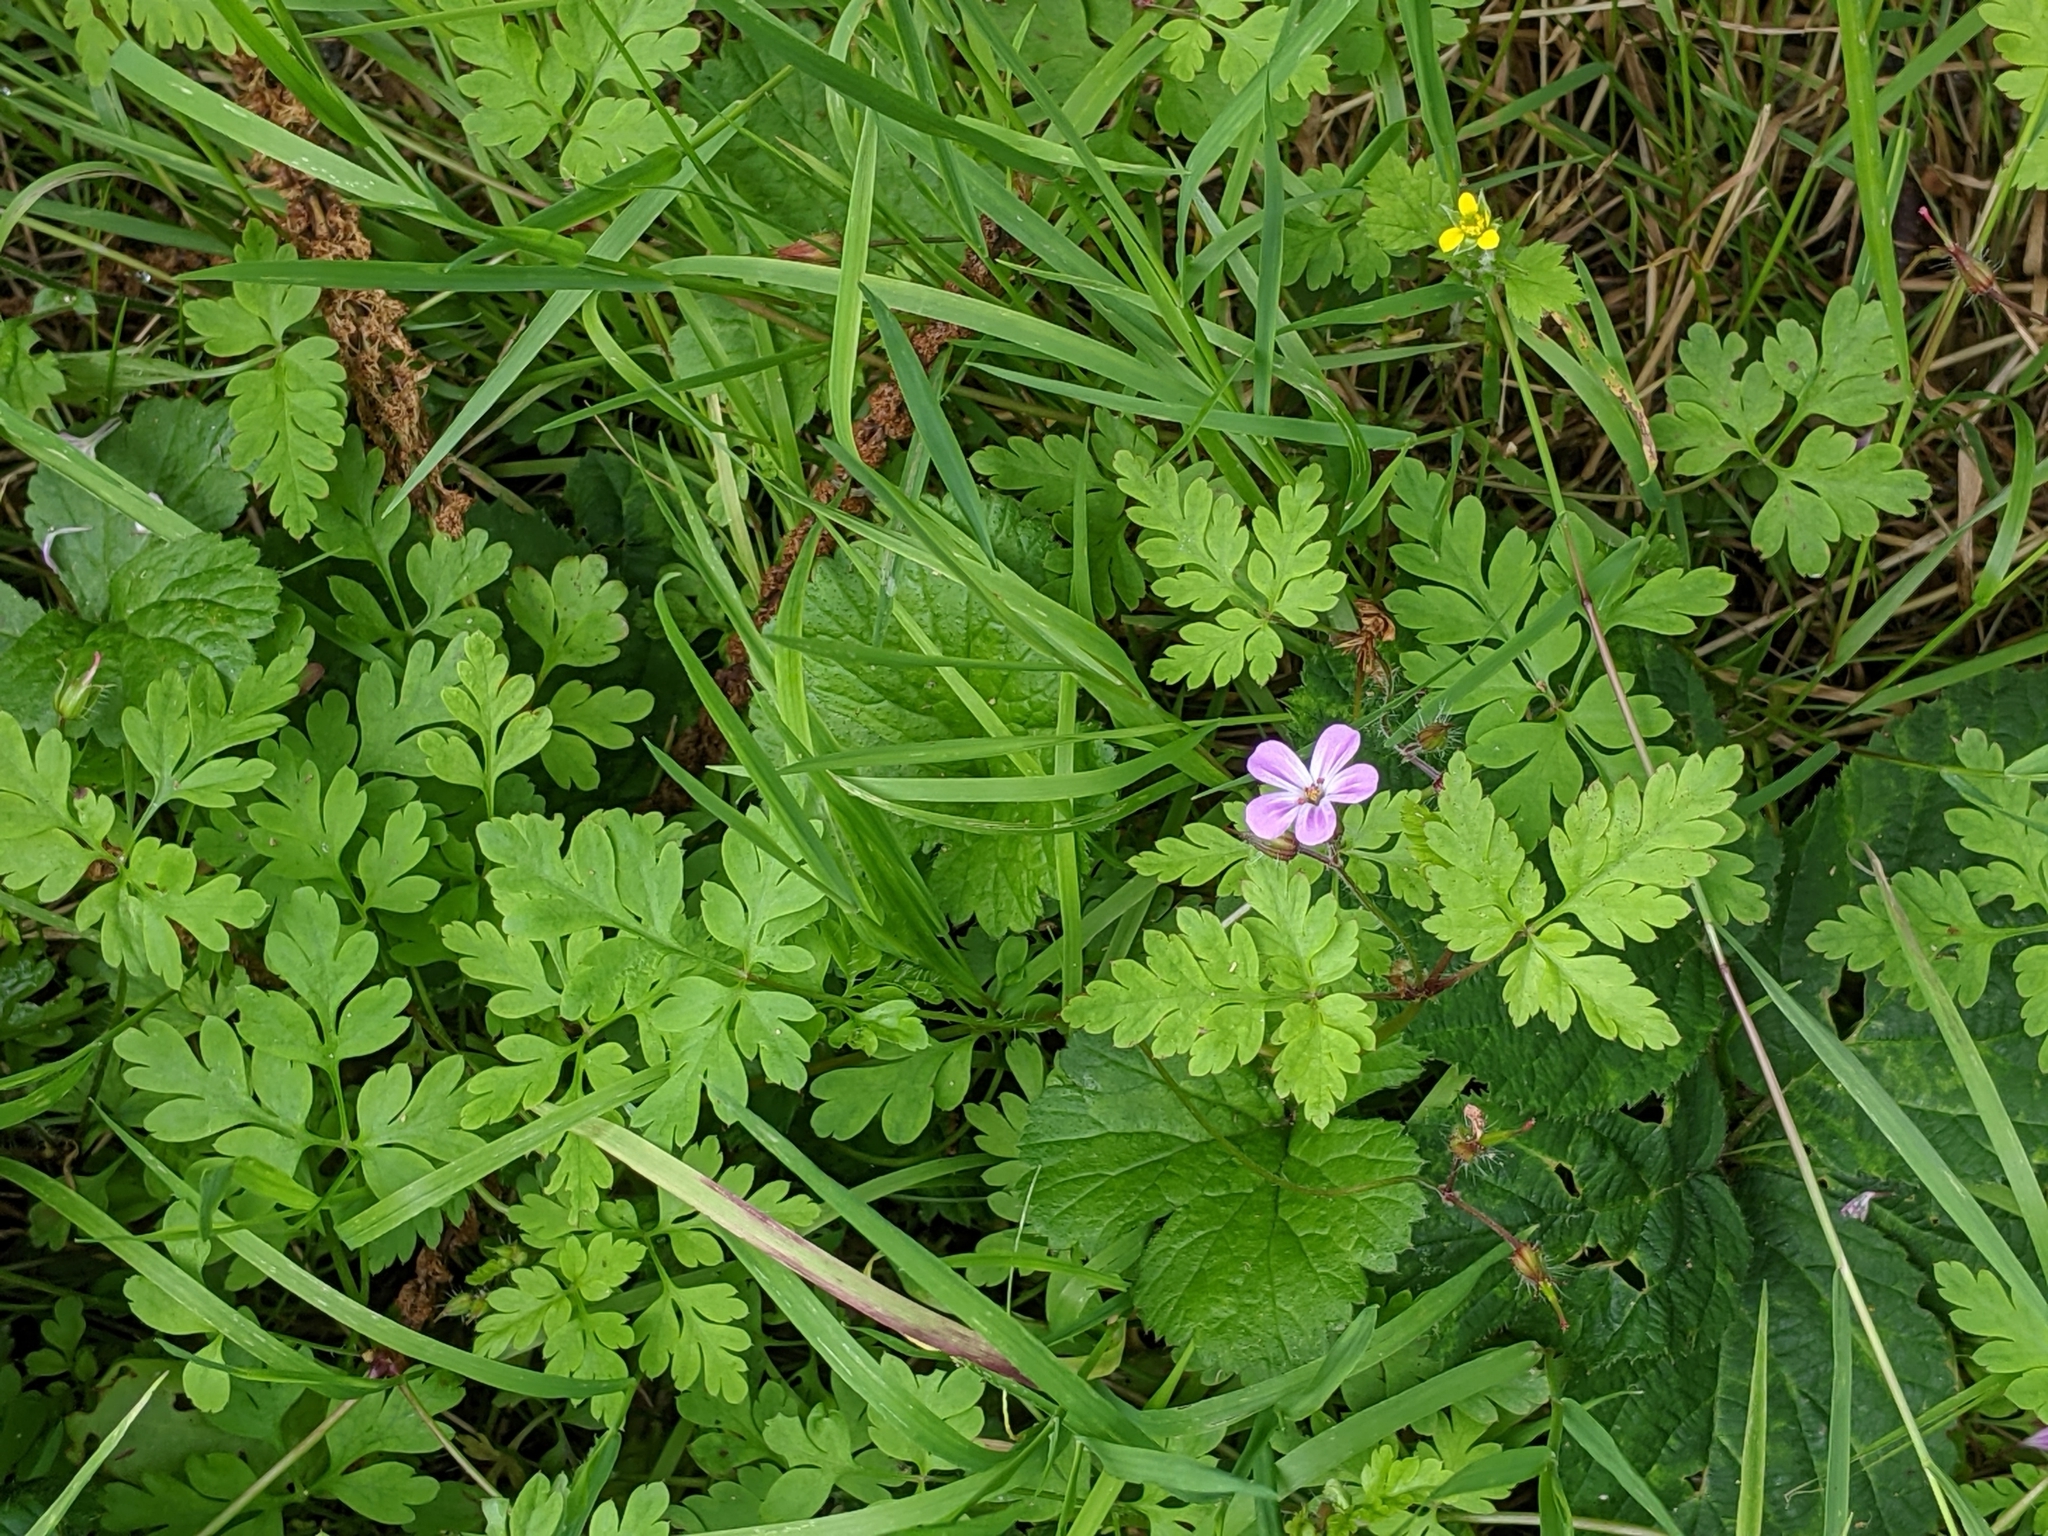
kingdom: Plantae
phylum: Tracheophyta
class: Magnoliopsida
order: Geraniales
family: Geraniaceae
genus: Geranium
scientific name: Geranium robertianum
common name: Herb-robert
